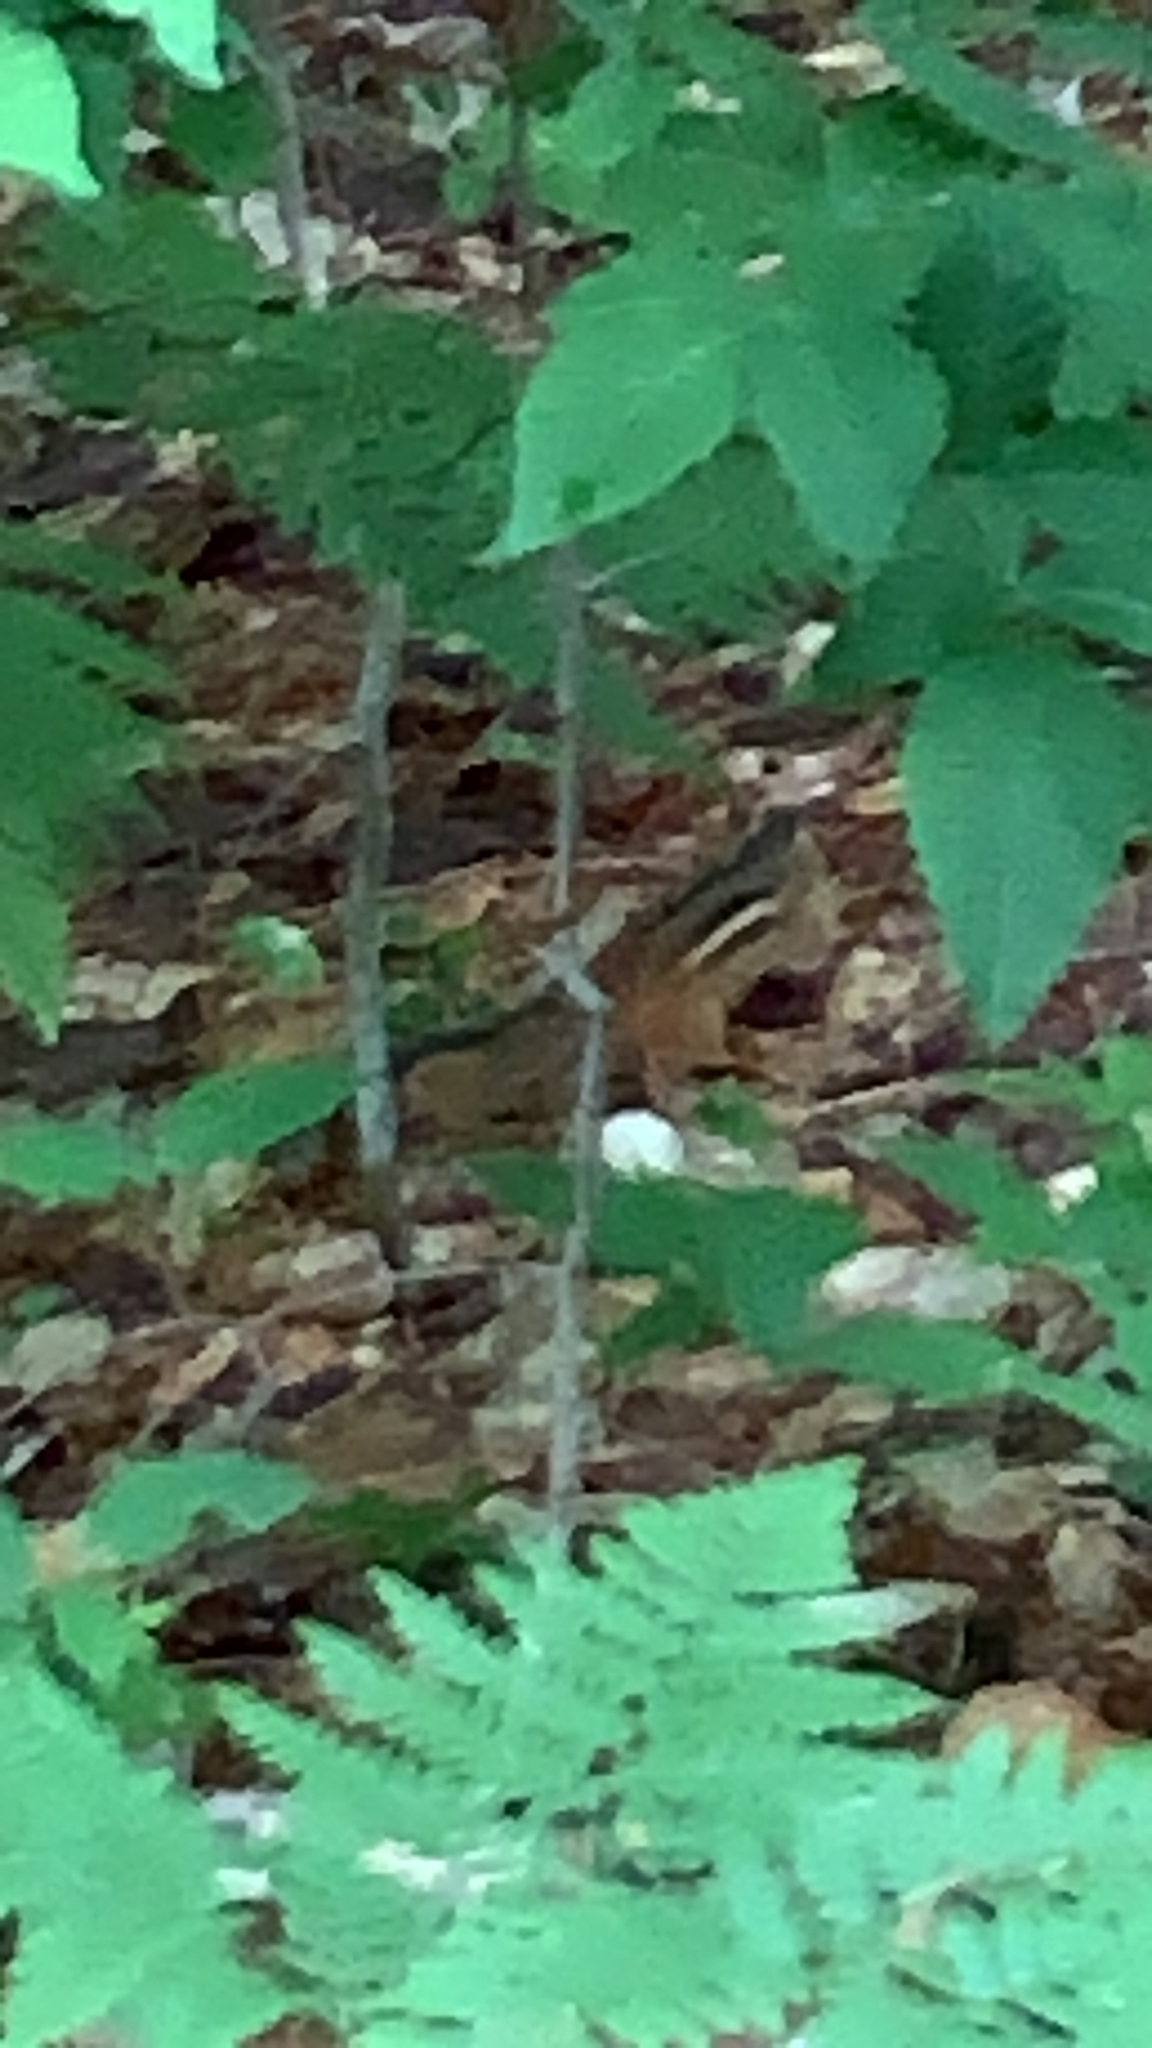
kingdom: Animalia
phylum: Chordata
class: Mammalia
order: Rodentia
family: Sciuridae
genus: Tamias
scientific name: Tamias striatus
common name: Eastern chipmunk
